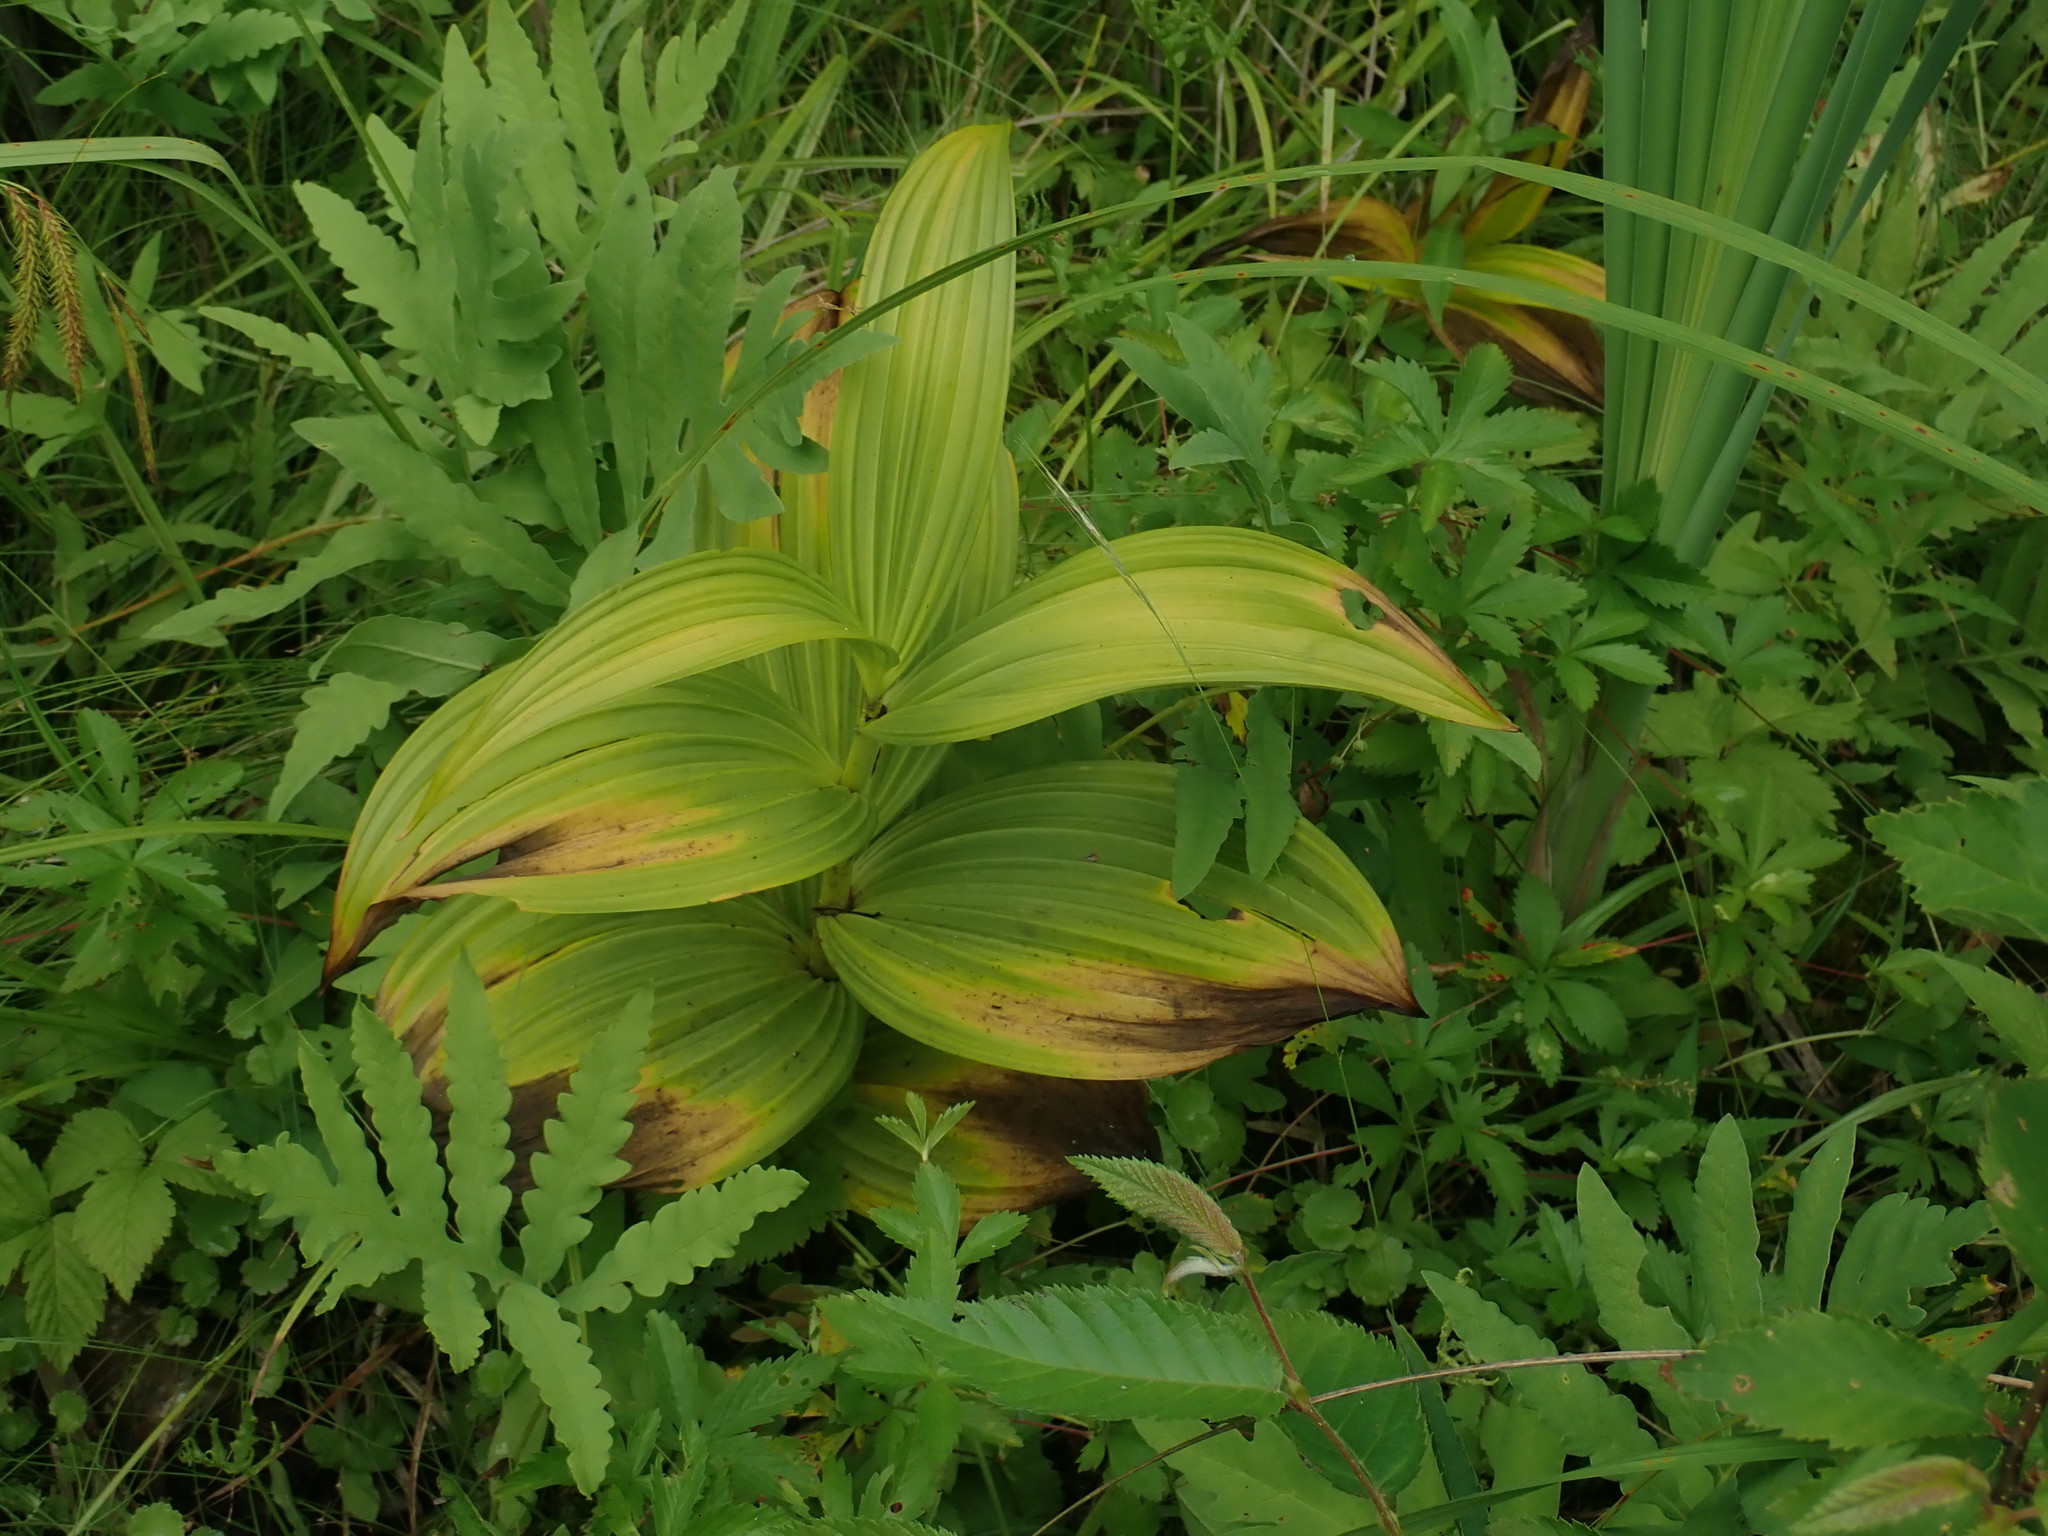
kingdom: Plantae
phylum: Tracheophyta
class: Liliopsida
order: Liliales
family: Melanthiaceae
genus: Veratrum
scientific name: Veratrum viride
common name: American false hellebore
